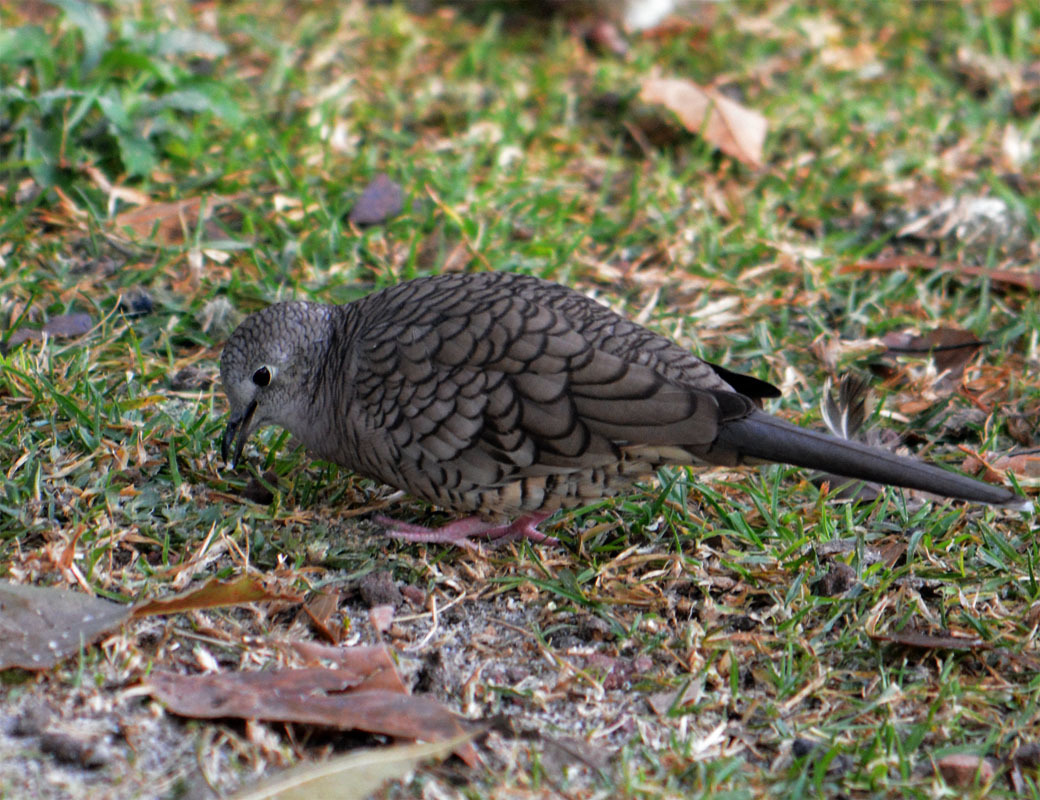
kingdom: Animalia
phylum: Chordata
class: Aves
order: Columbiformes
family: Columbidae
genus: Columbina
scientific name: Columbina inca
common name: Inca dove
